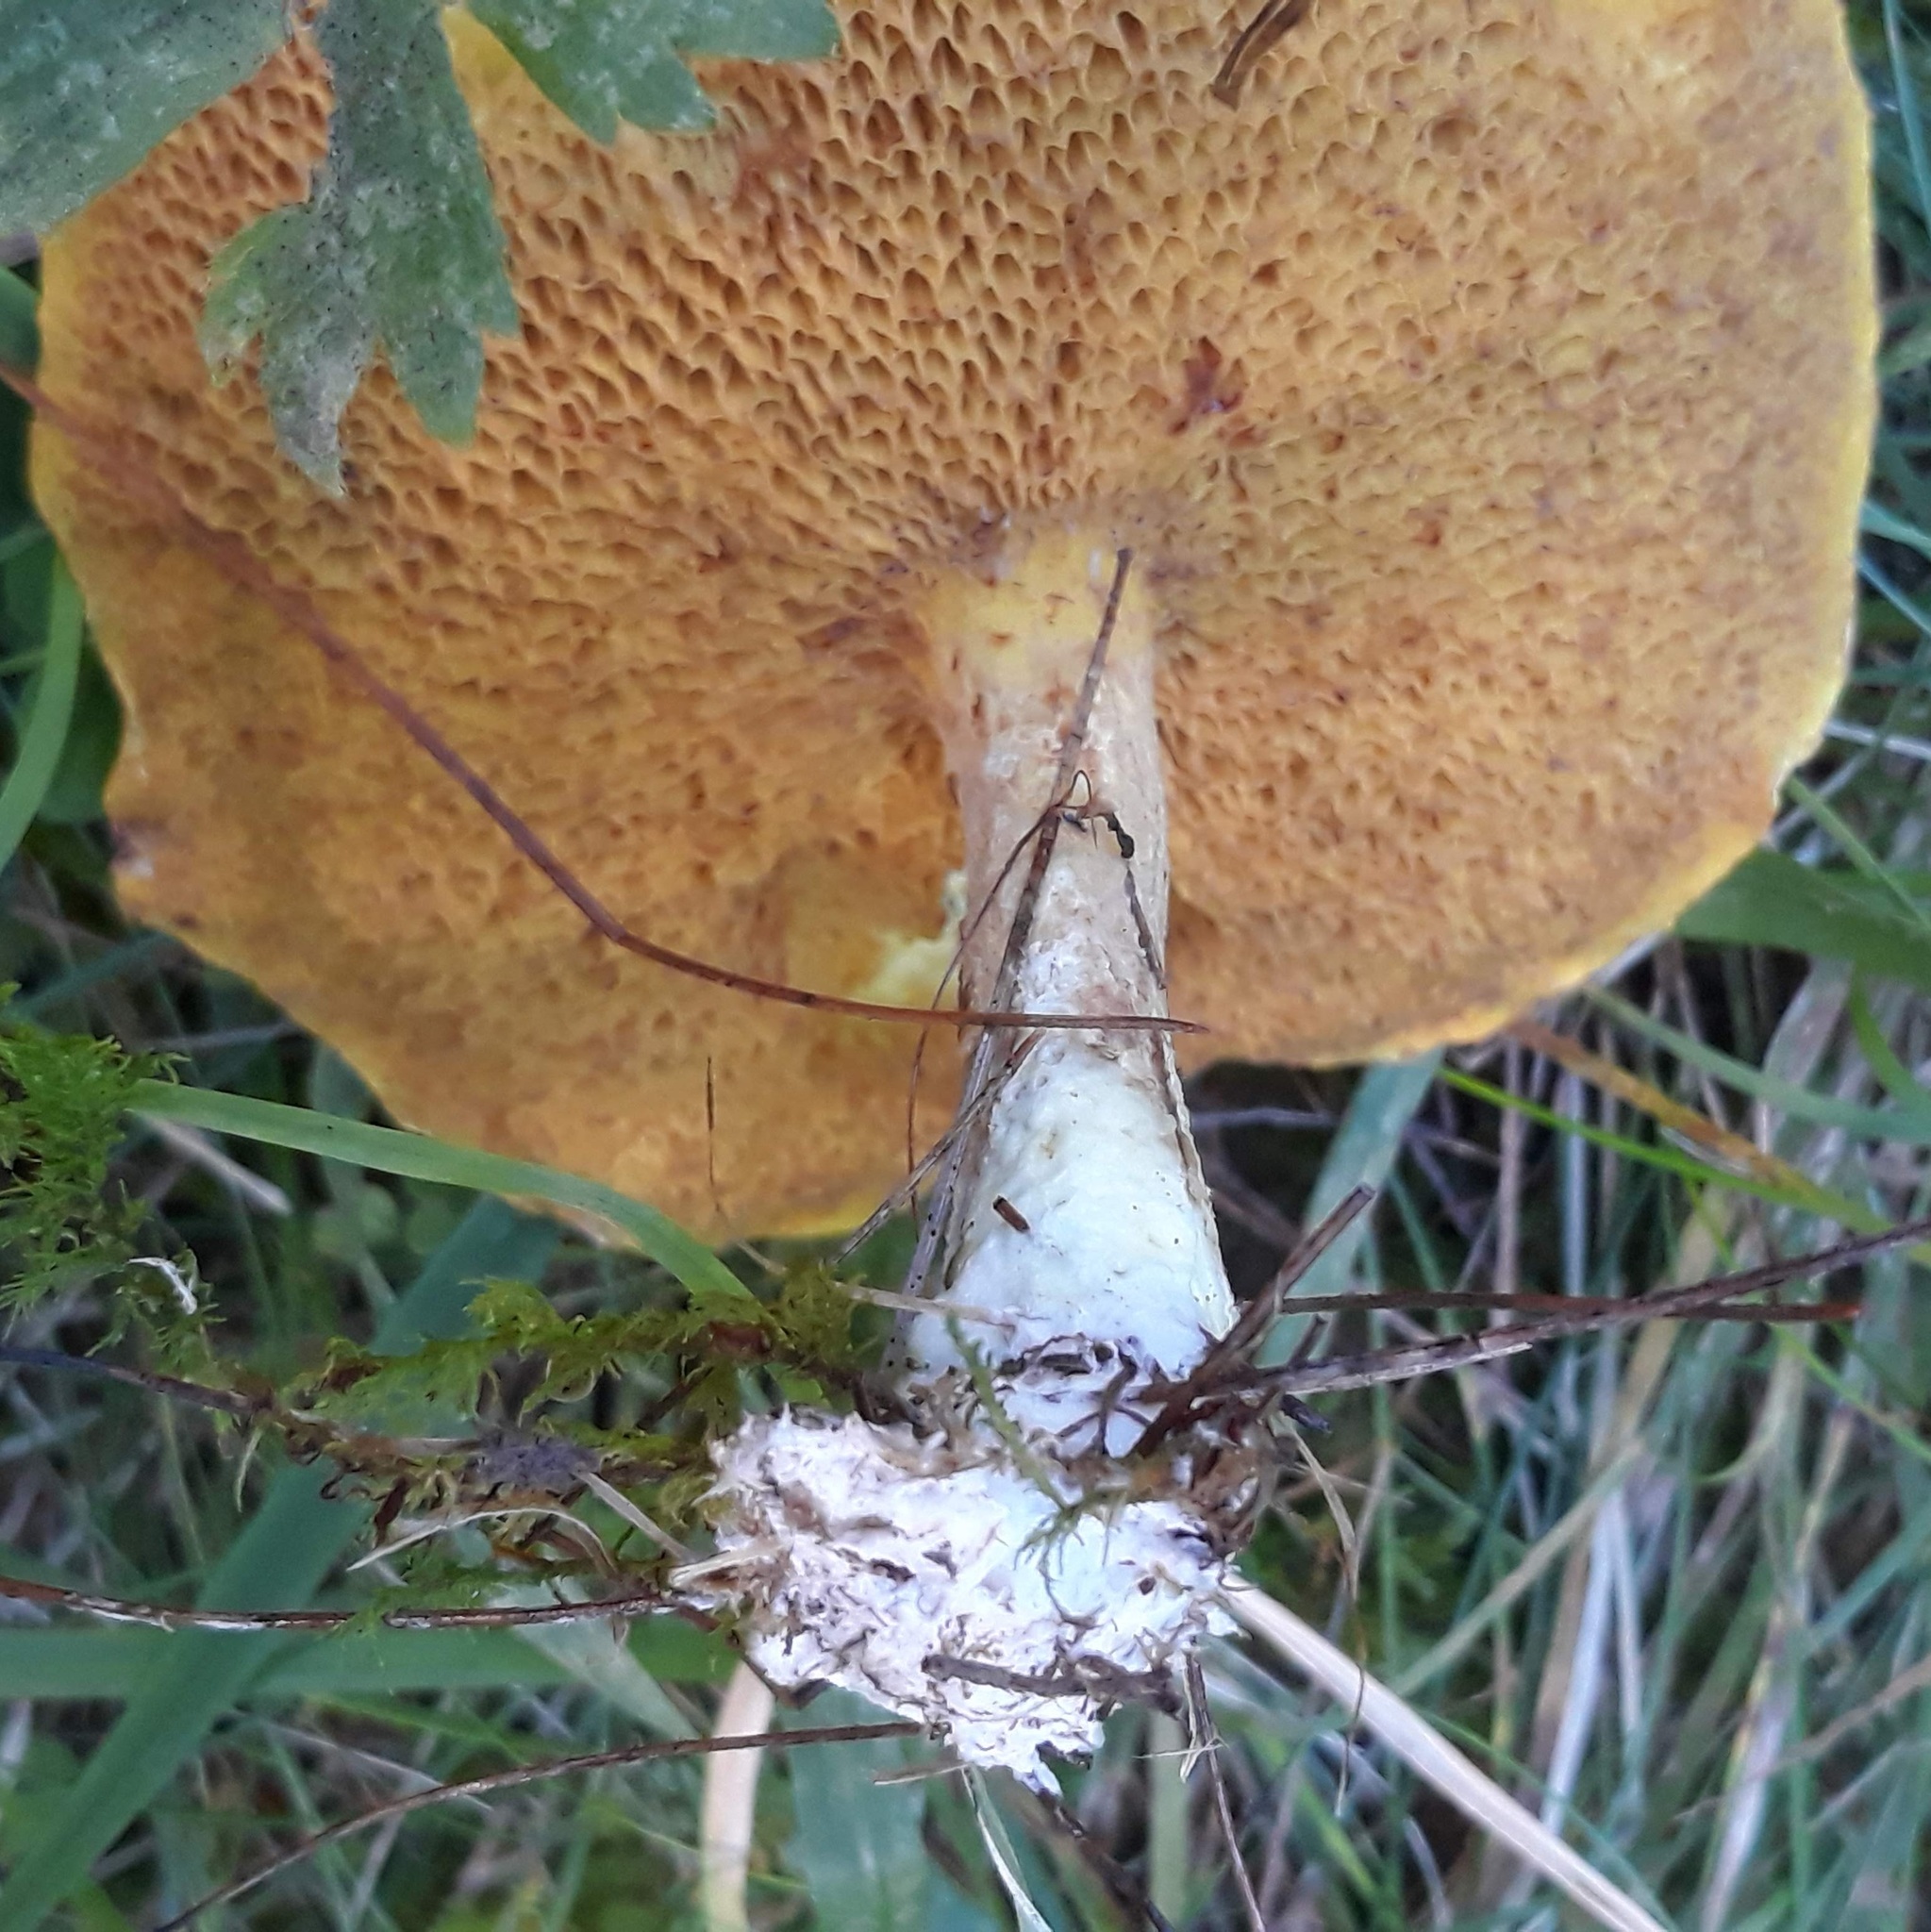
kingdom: Fungi
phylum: Basidiomycota
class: Agaricomycetes
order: Boletales
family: Suillaceae
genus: Suillus
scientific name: Suillus americanus
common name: Chicken fat mushroom
